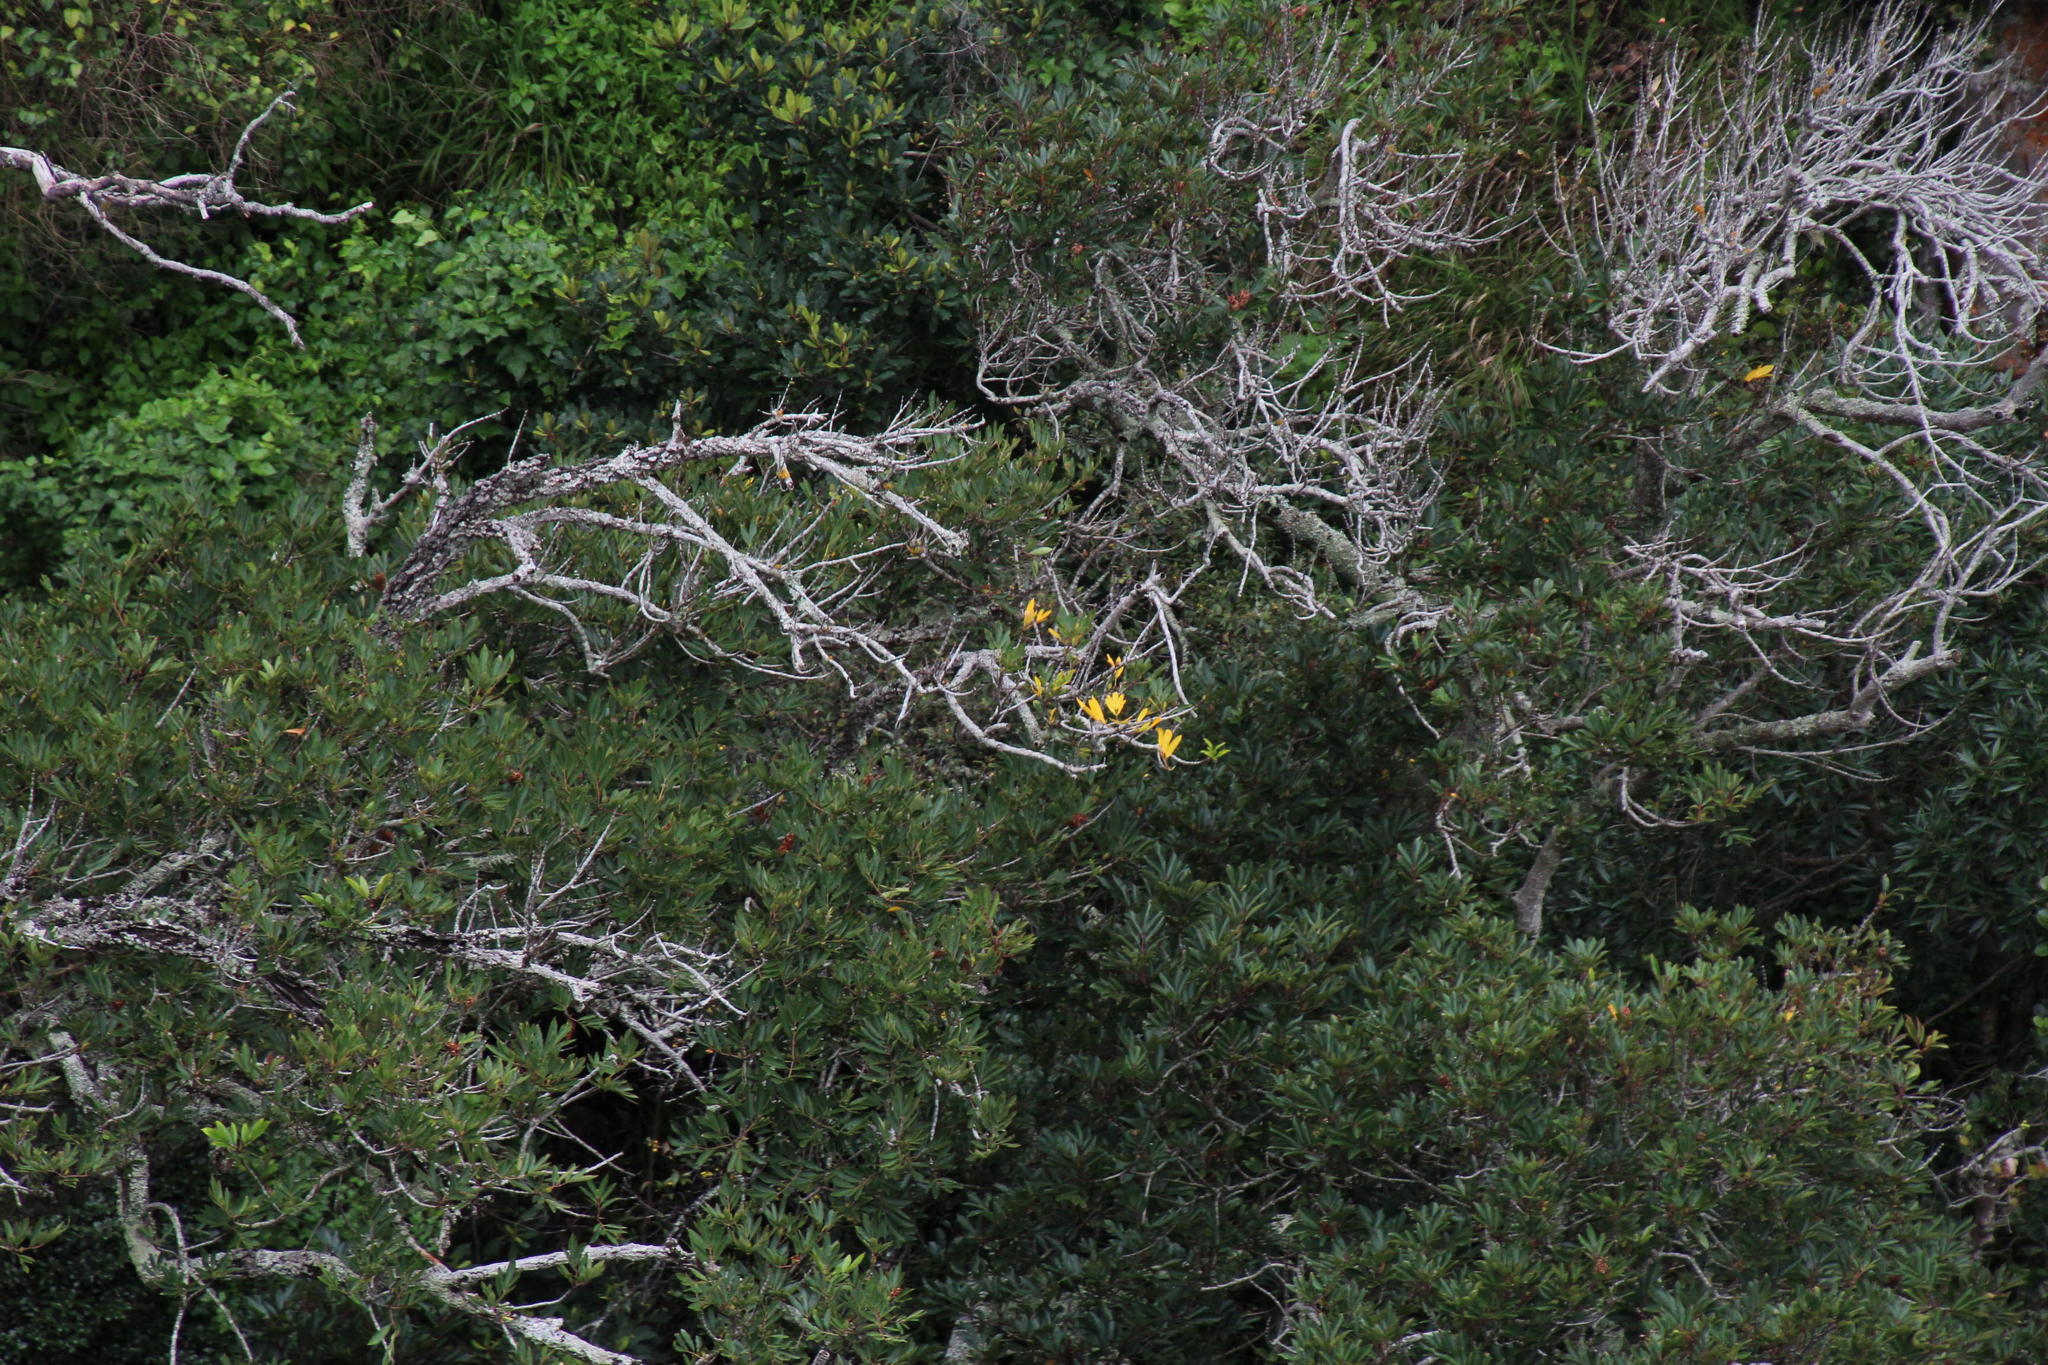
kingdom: Plantae
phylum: Tracheophyta
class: Magnoliopsida
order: Oxalidales
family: Cunoniaceae
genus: Cunonia
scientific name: Cunonia capensis
